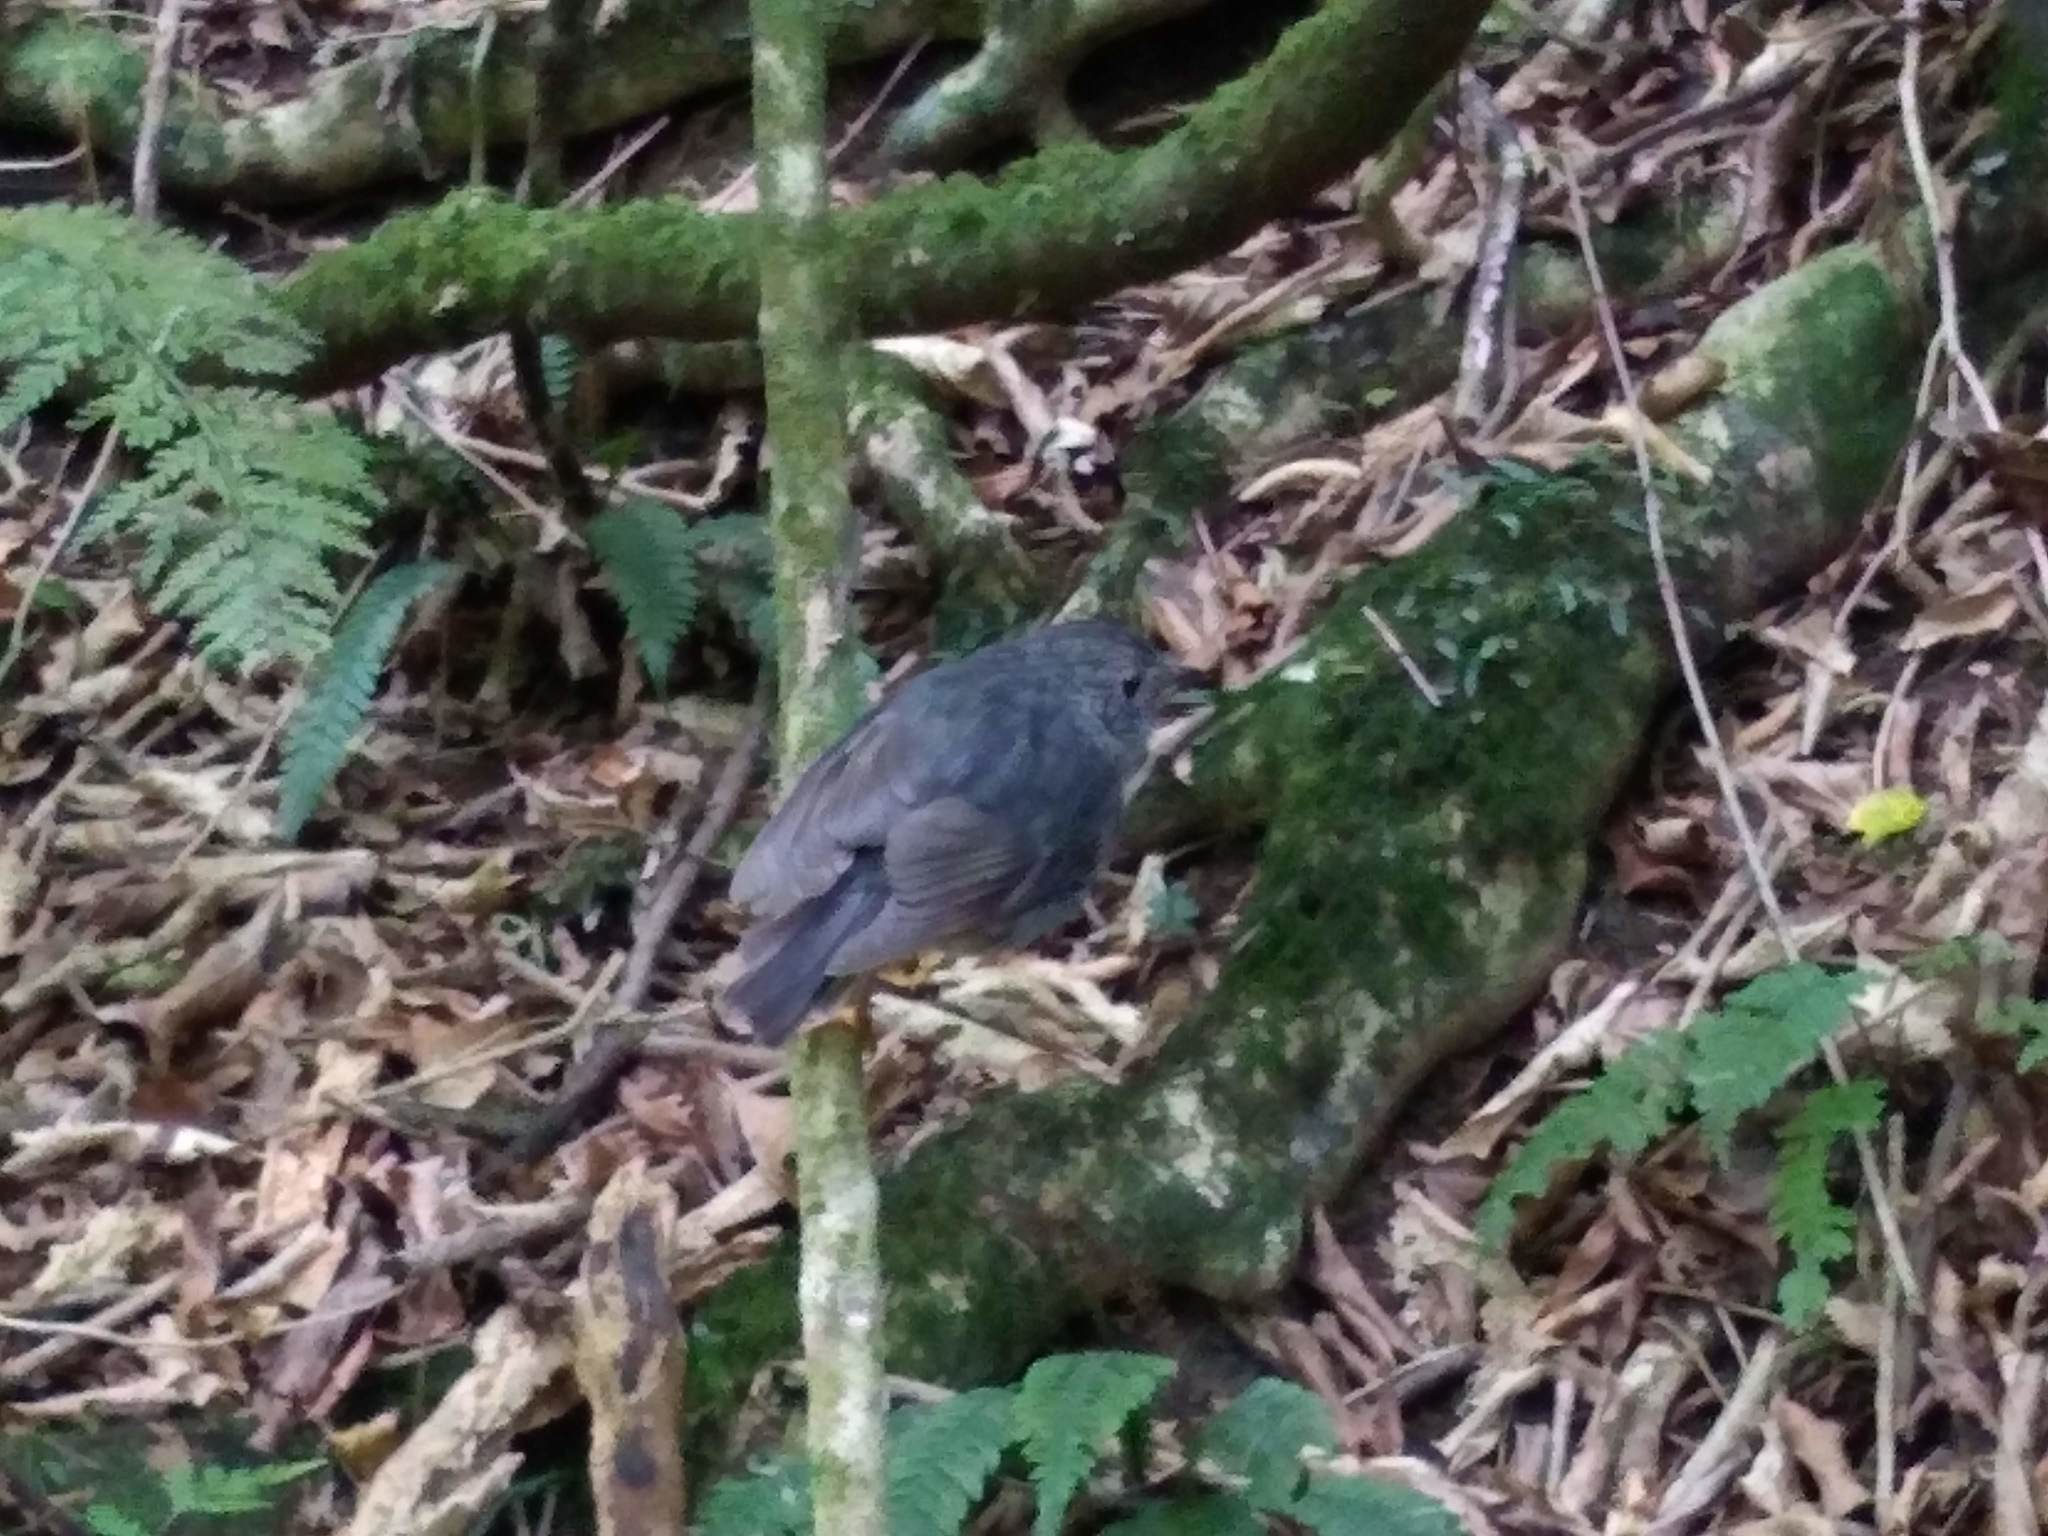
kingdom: Animalia
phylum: Chordata
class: Aves
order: Passeriformes
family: Petroicidae
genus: Petroica
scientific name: Petroica australis
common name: New zealand robin
